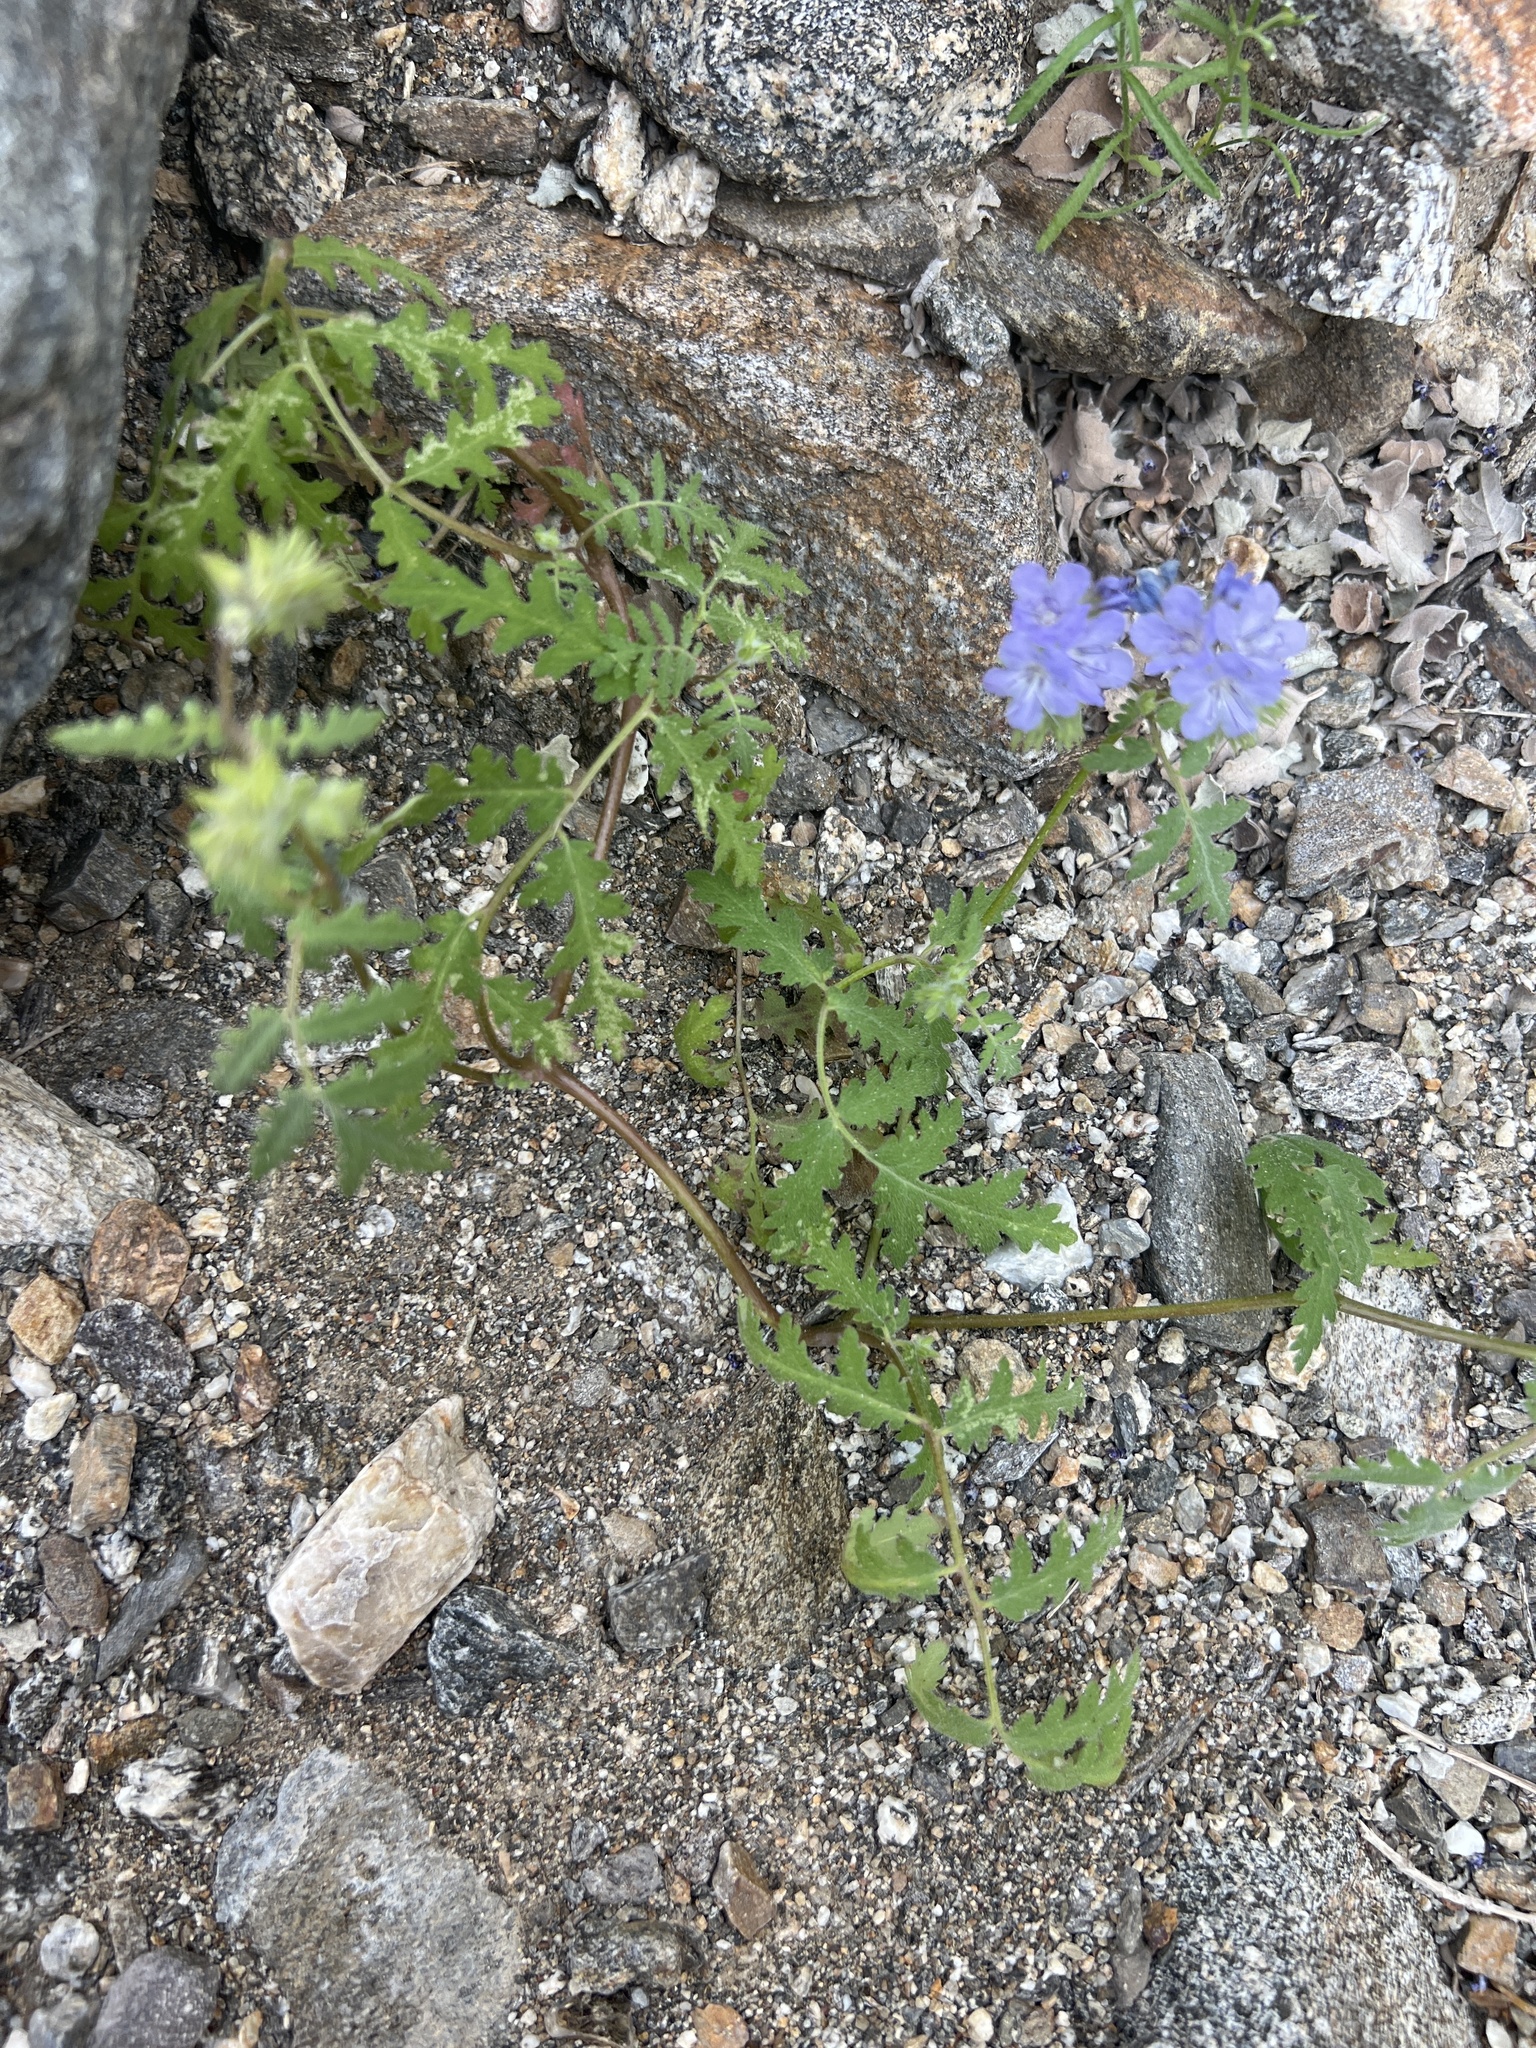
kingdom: Plantae
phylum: Tracheophyta
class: Magnoliopsida
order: Boraginales
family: Hydrophyllaceae
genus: Phacelia
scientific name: Phacelia distans
